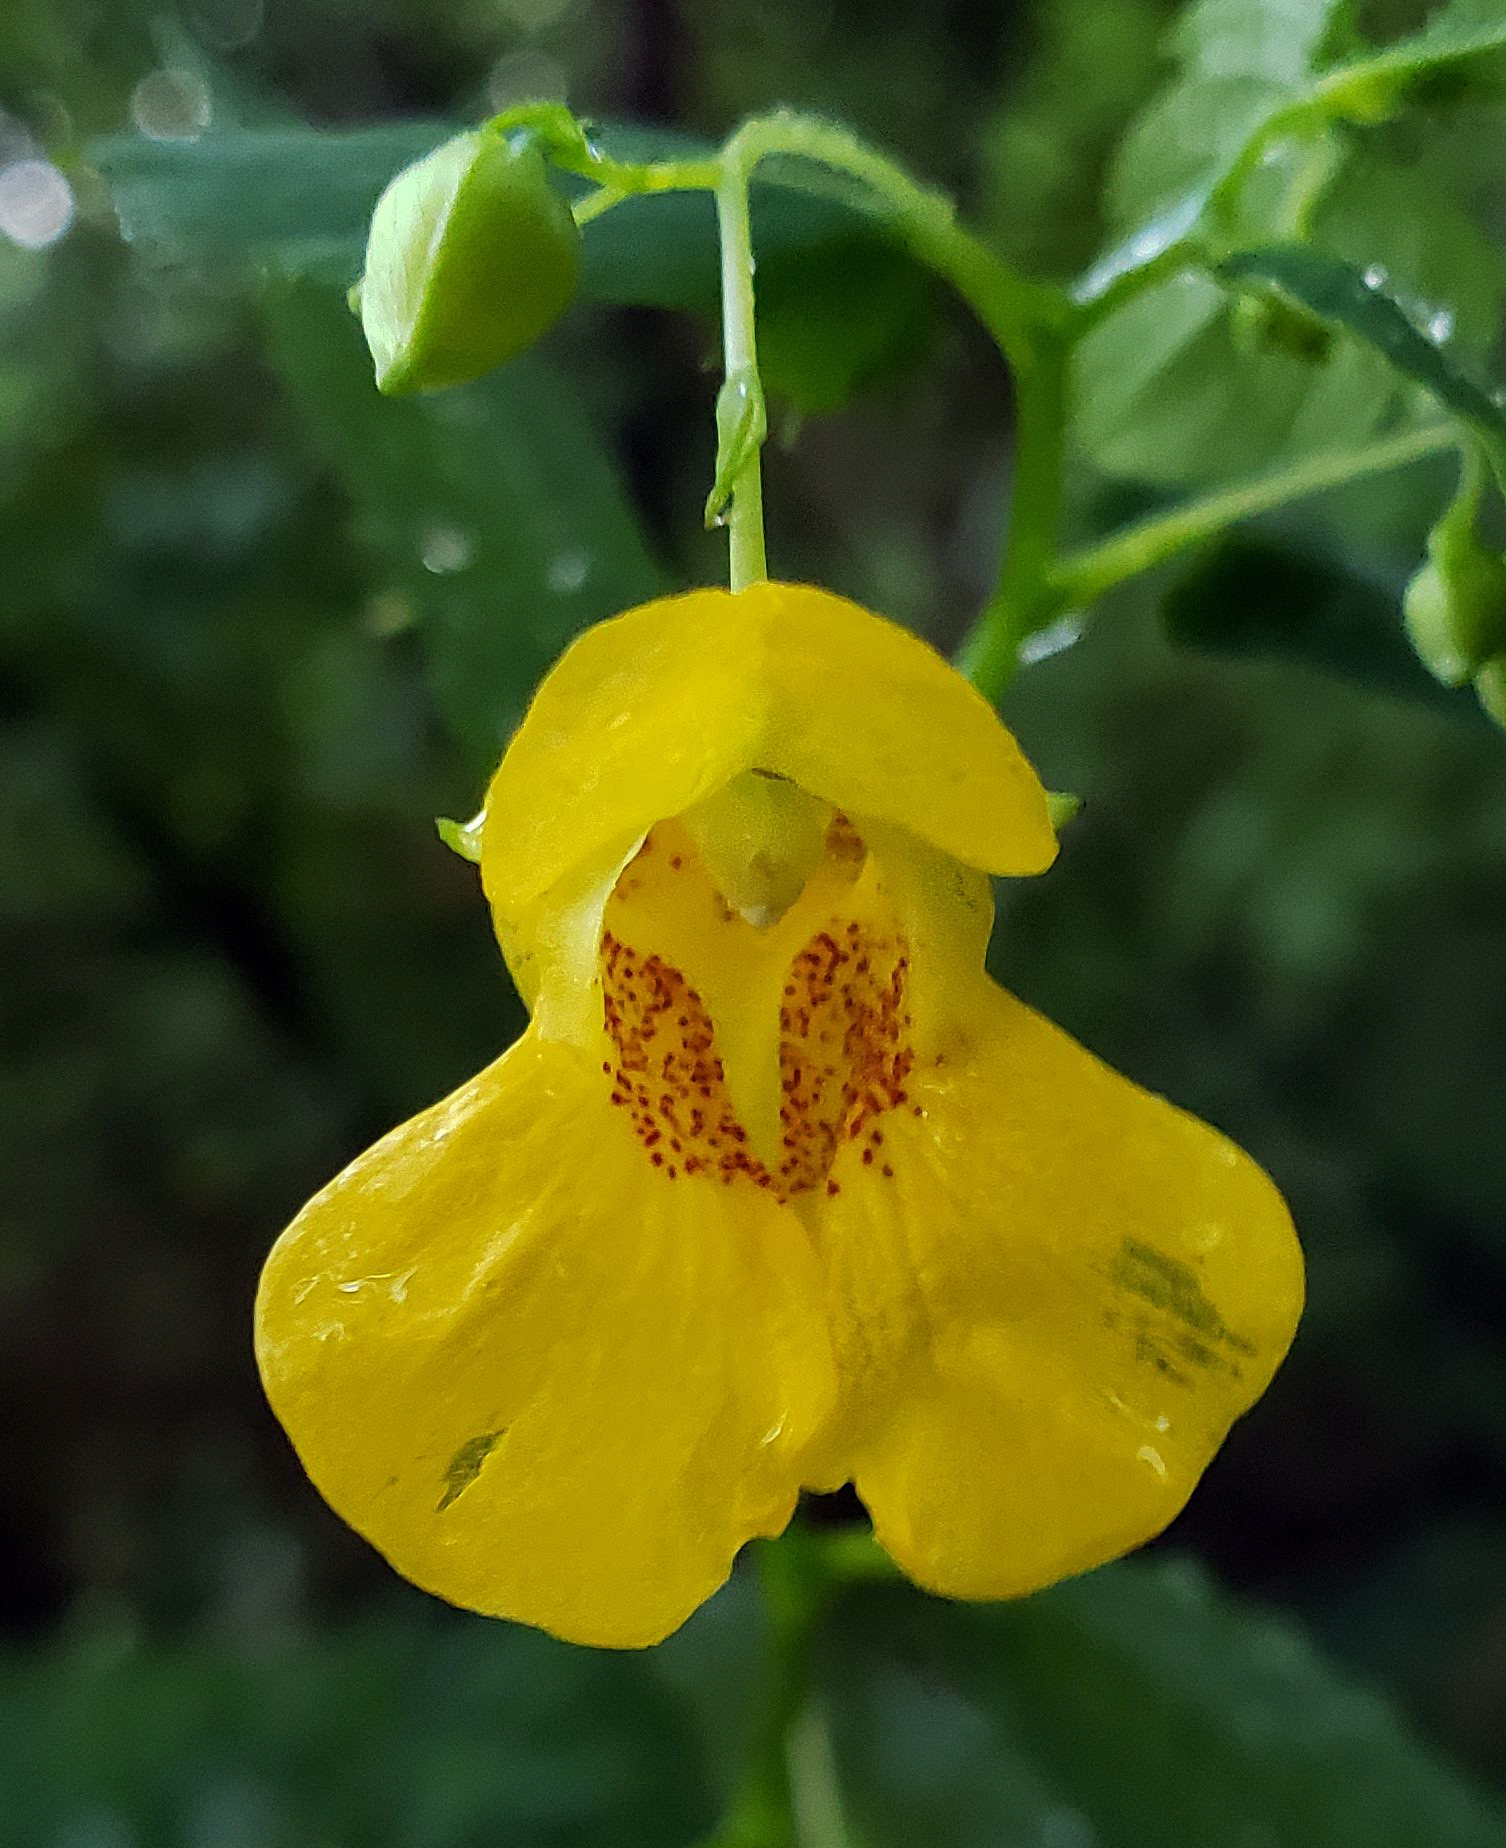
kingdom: Plantae
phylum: Tracheophyta
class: Magnoliopsida
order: Ericales
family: Balsaminaceae
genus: Impatiens
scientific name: Impatiens pallida
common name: Pale snapweed
